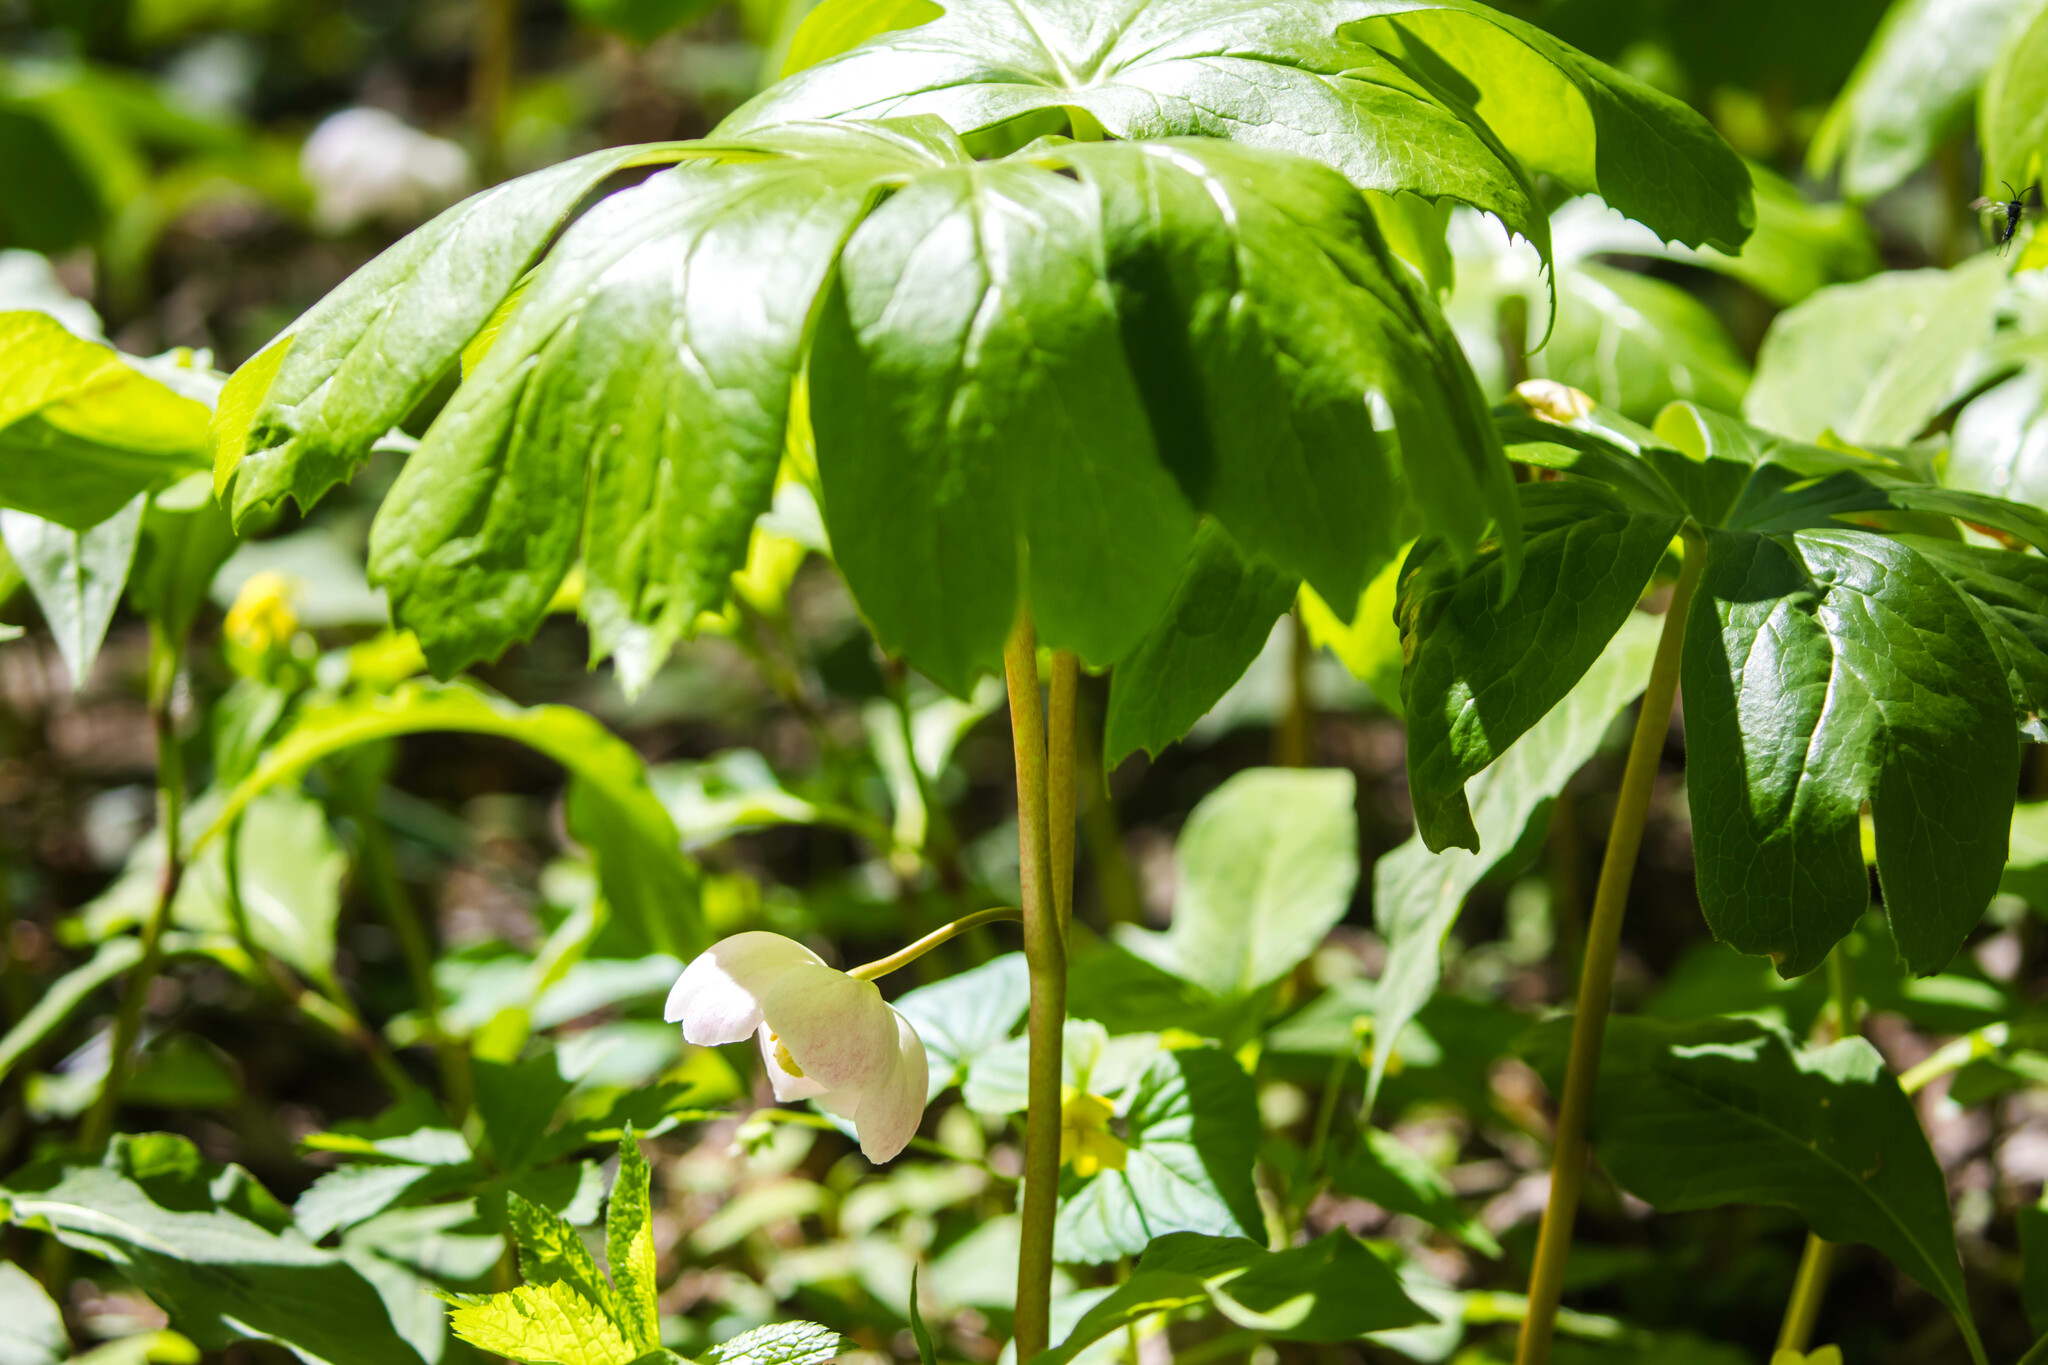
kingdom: Plantae
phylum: Tracheophyta
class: Magnoliopsida
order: Ranunculales
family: Berberidaceae
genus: Podophyllum
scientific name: Podophyllum peltatum
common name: Wild mandrake
